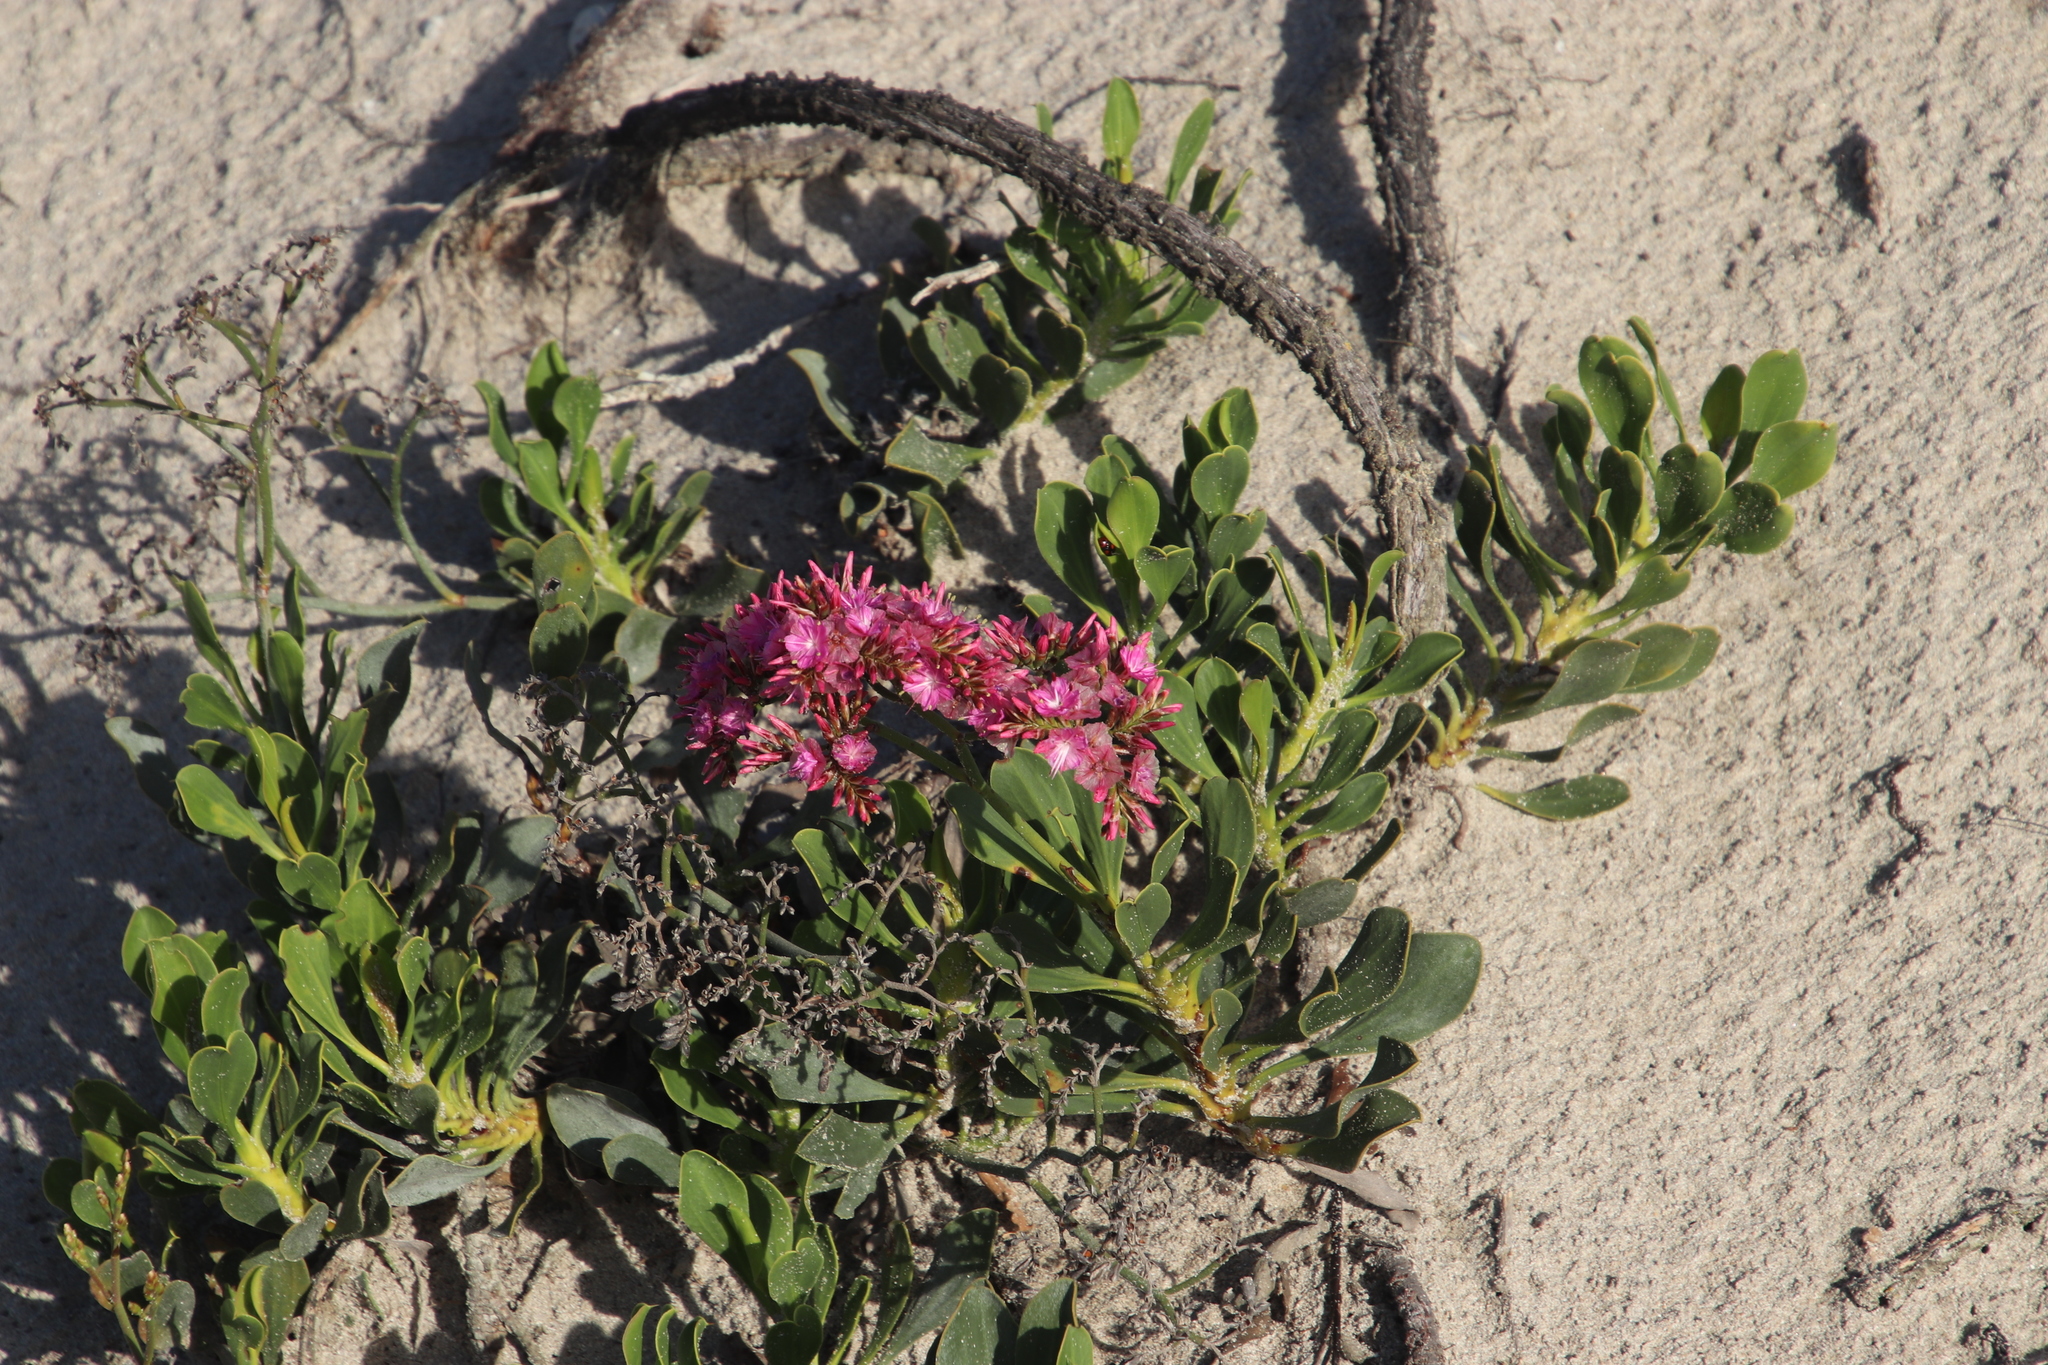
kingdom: Plantae
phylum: Tracheophyta
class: Magnoliopsida
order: Caryophyllales
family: Plumbaginaceae
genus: Limonium
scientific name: Limonium peregrinum
